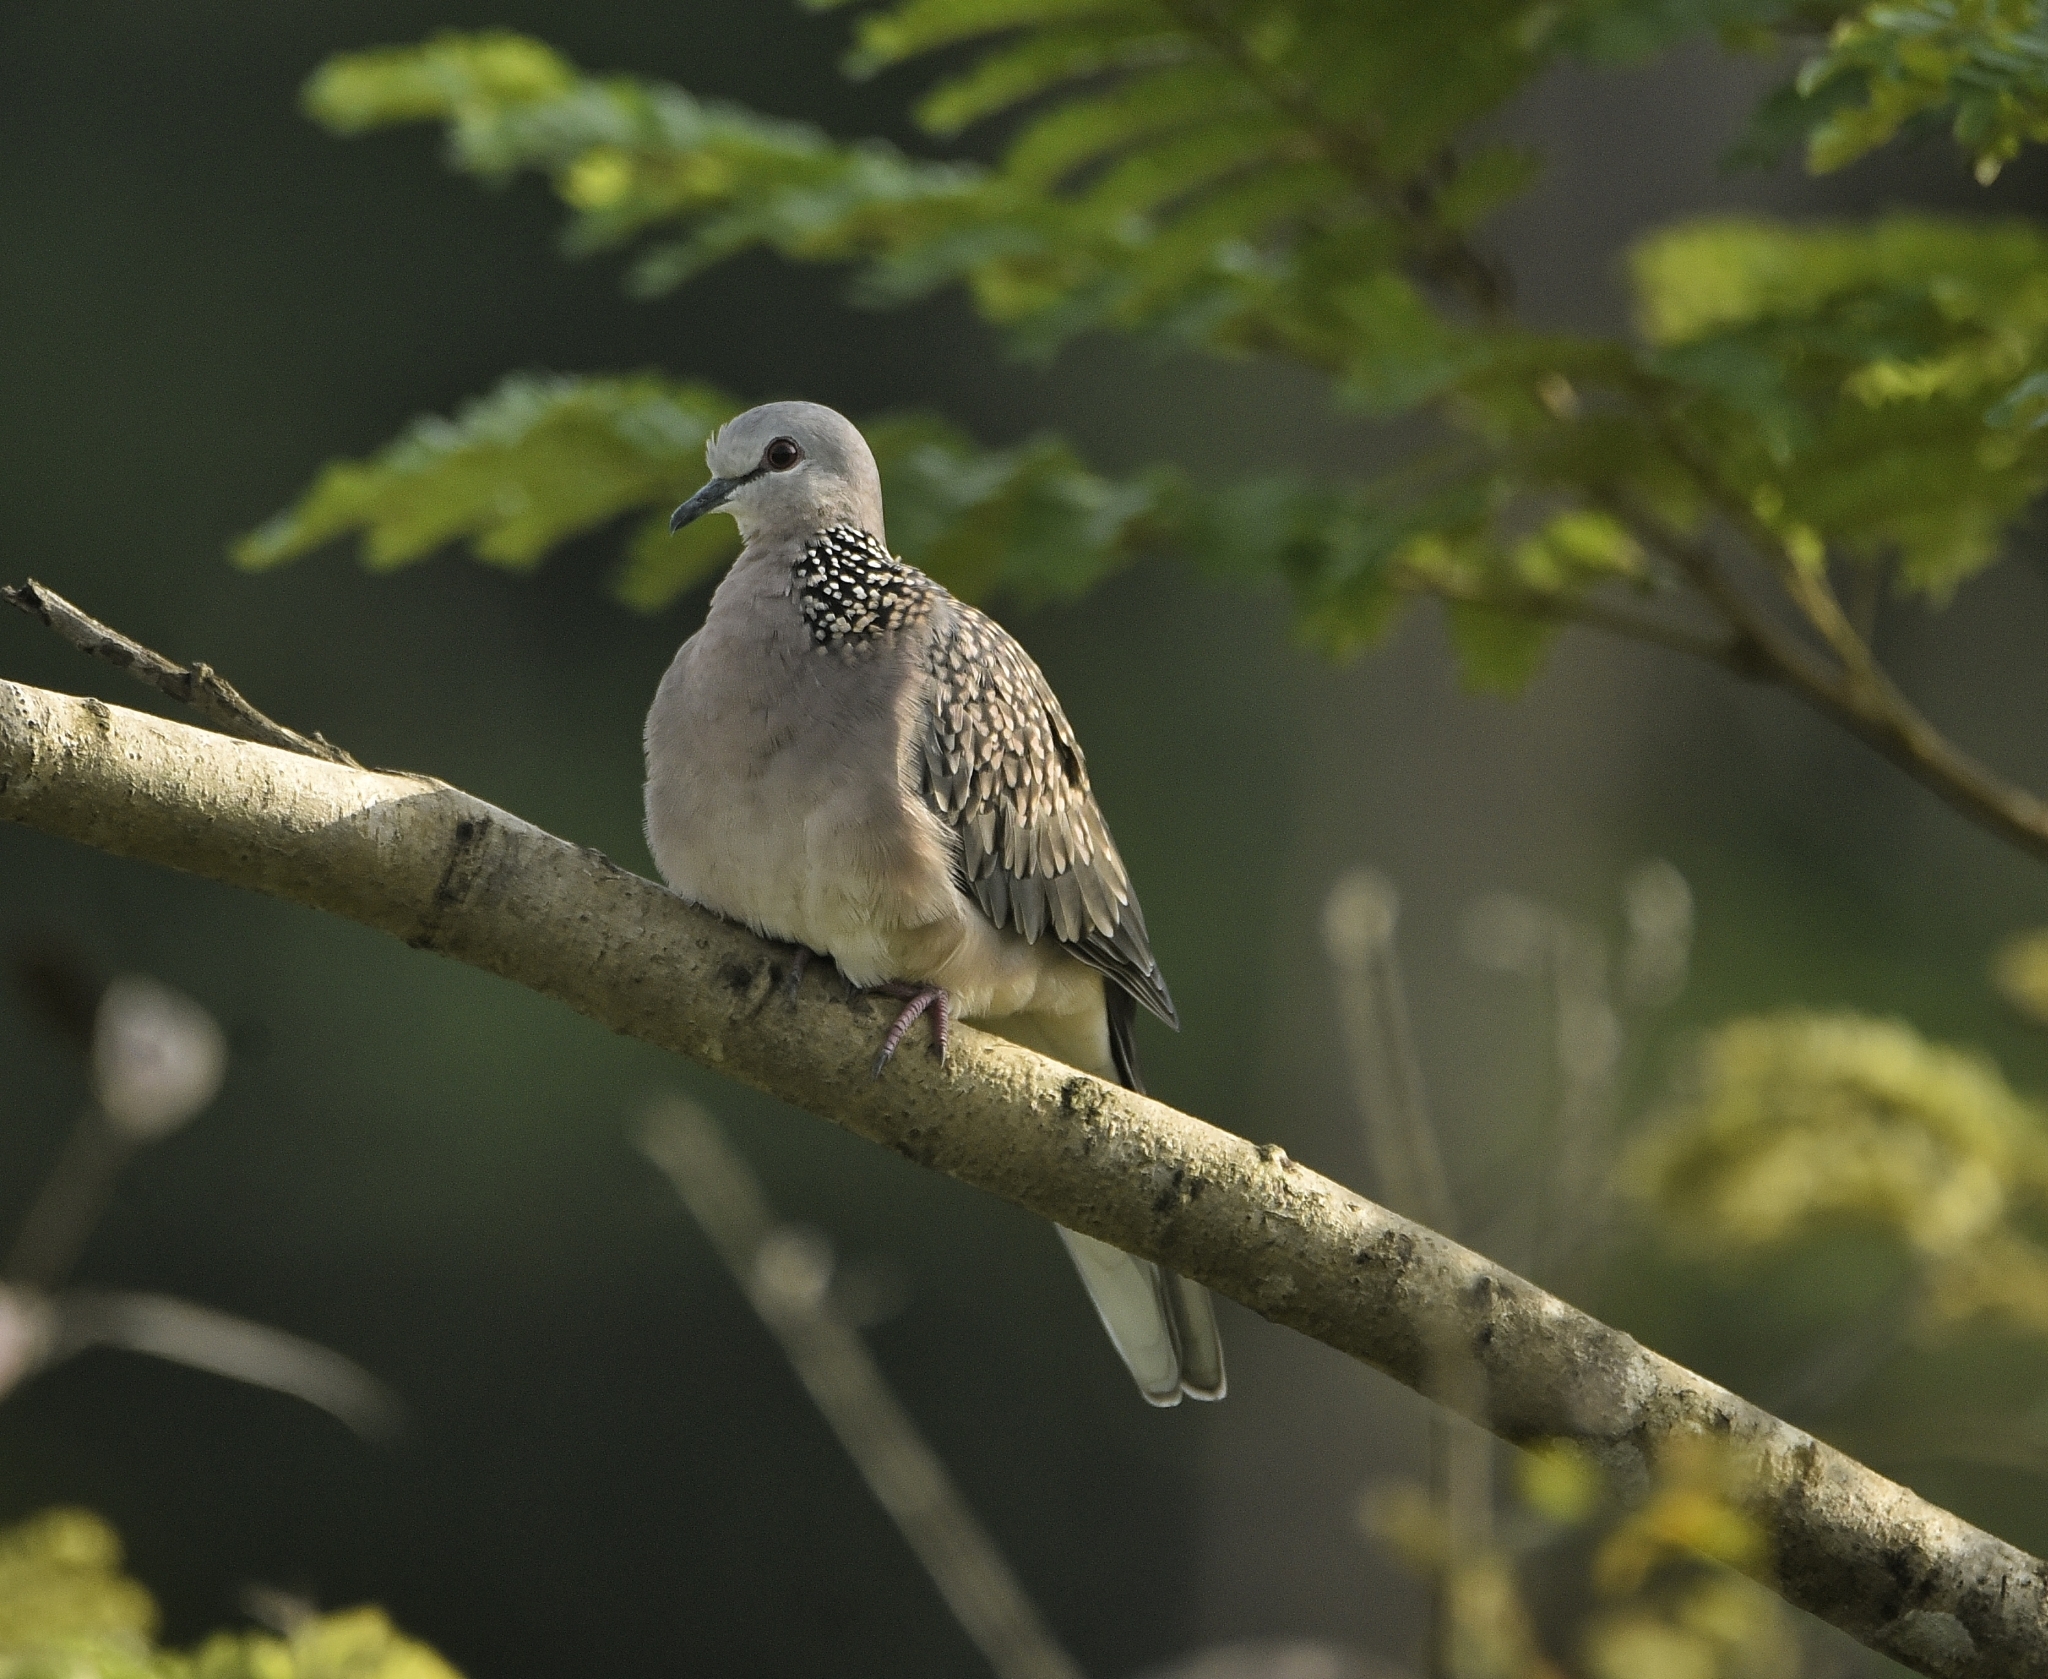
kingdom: Animalia
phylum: Chordata
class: Aves
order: Columbiformes
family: Columbidae
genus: Spilopelia
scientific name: Spilopelia chinensis
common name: Spotted dove
